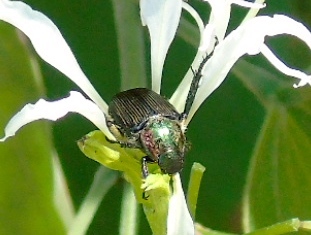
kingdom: Animalia
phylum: Arthropoda
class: Insecta
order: Coleoptera
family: Scarabaeidae
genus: Strigoderma
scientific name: Strigoderma
